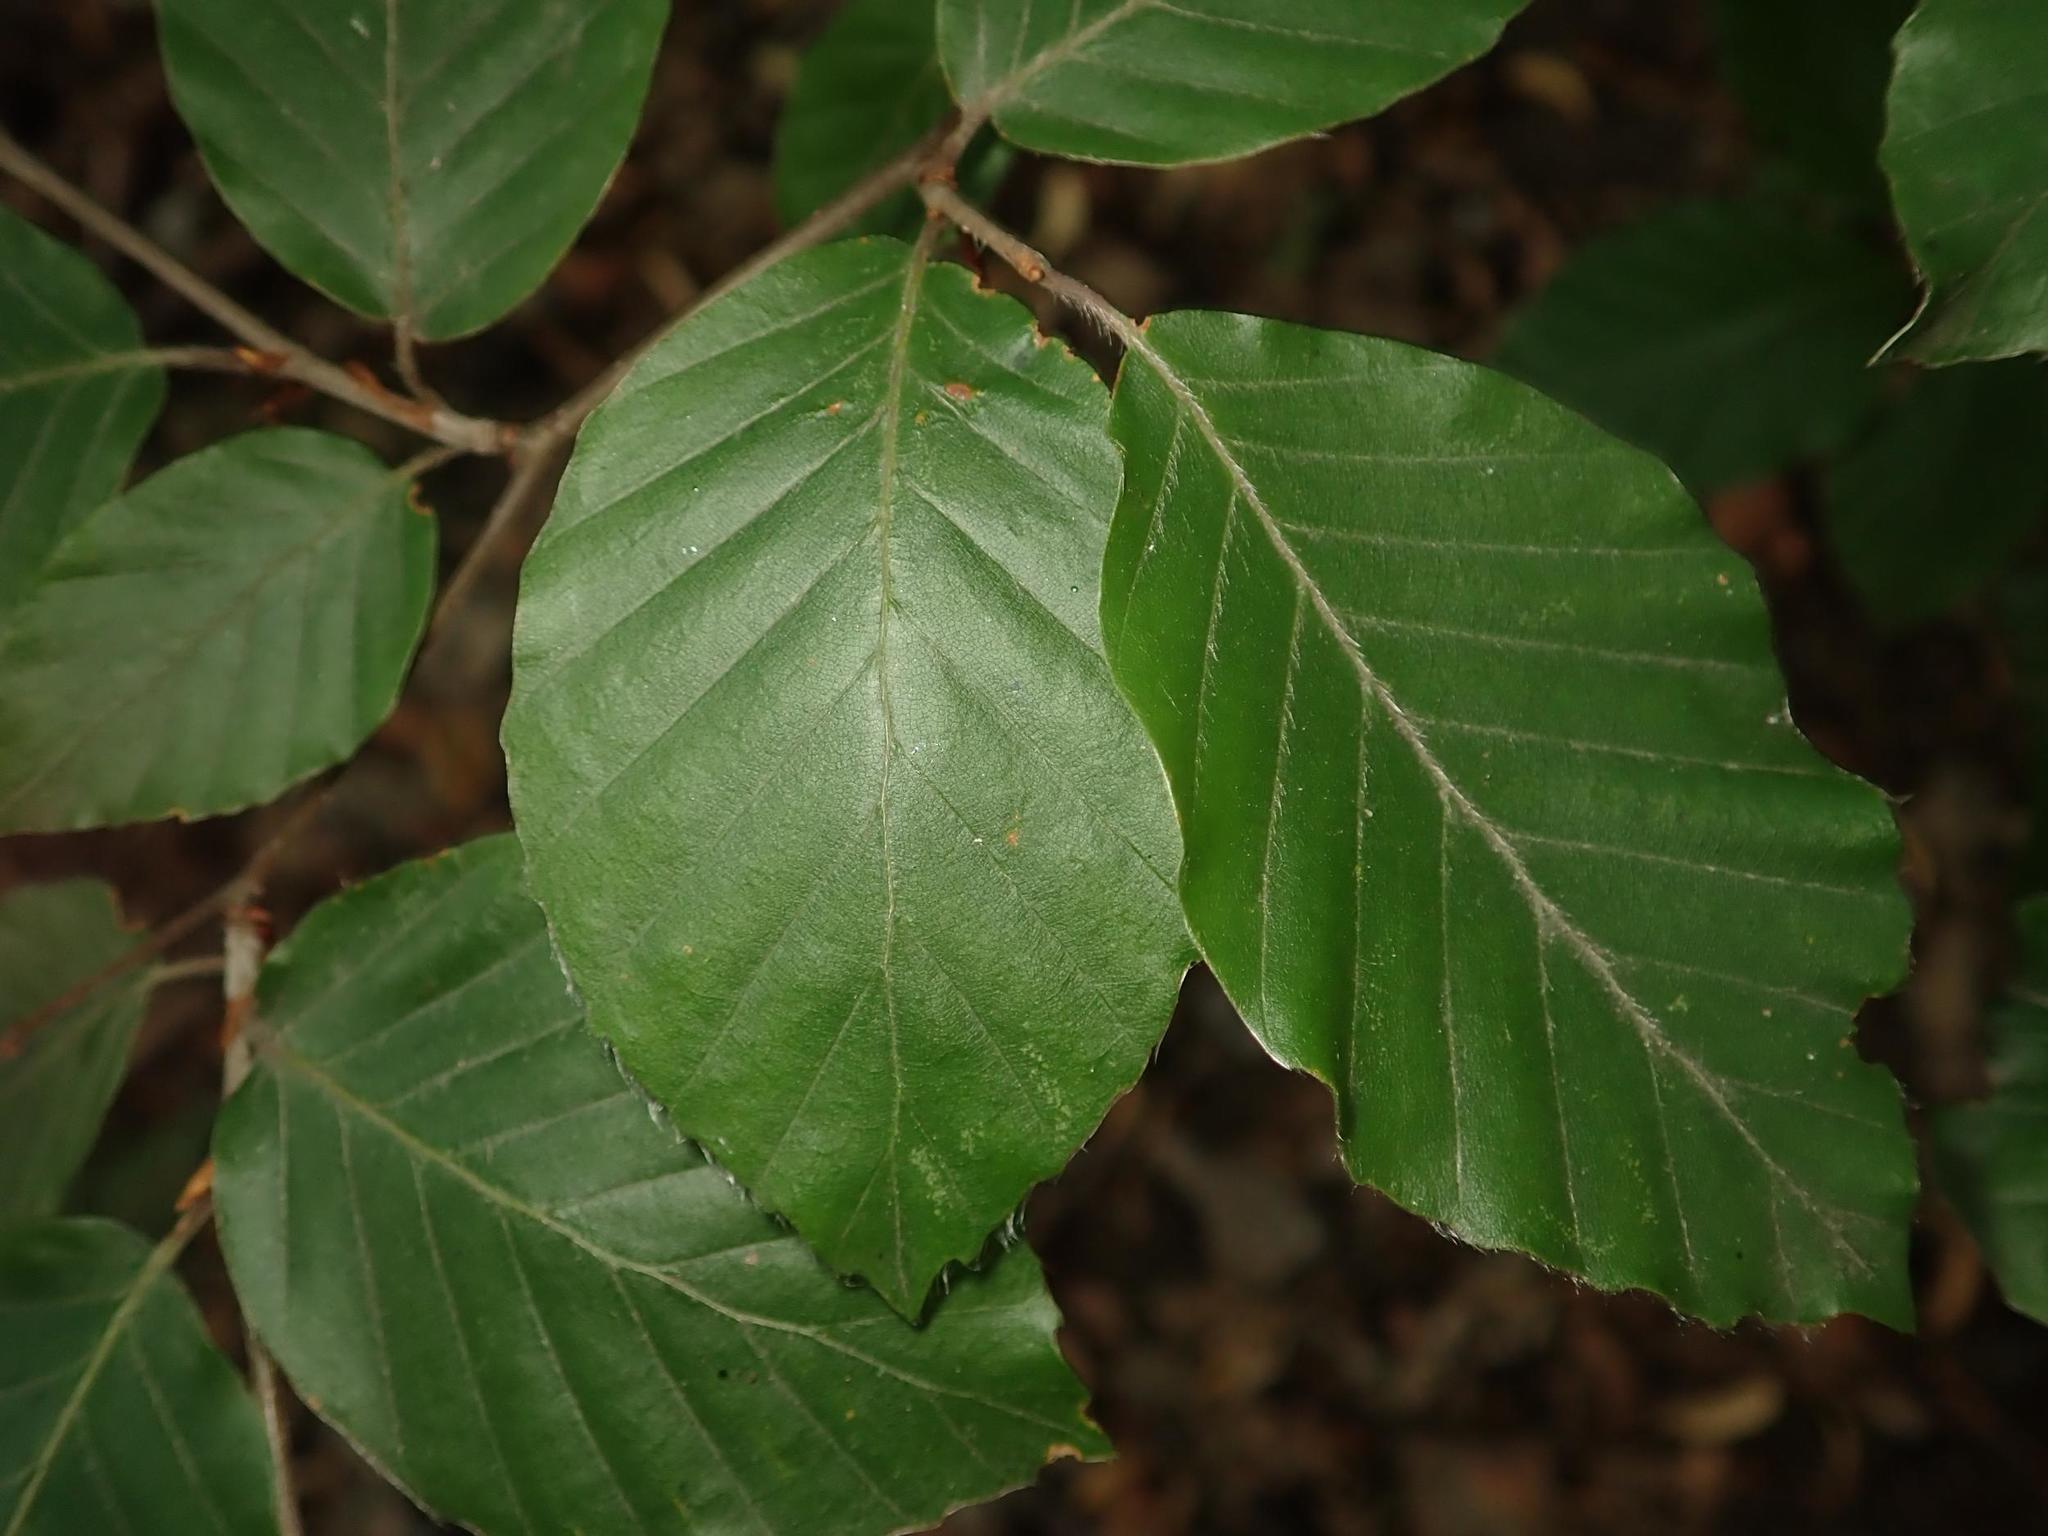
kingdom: Plantae
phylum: Tracheophyta
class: Magnoliopsida
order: Fagales
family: Fagaceae
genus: Fagus
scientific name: Fagus sylvatica
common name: Beech
